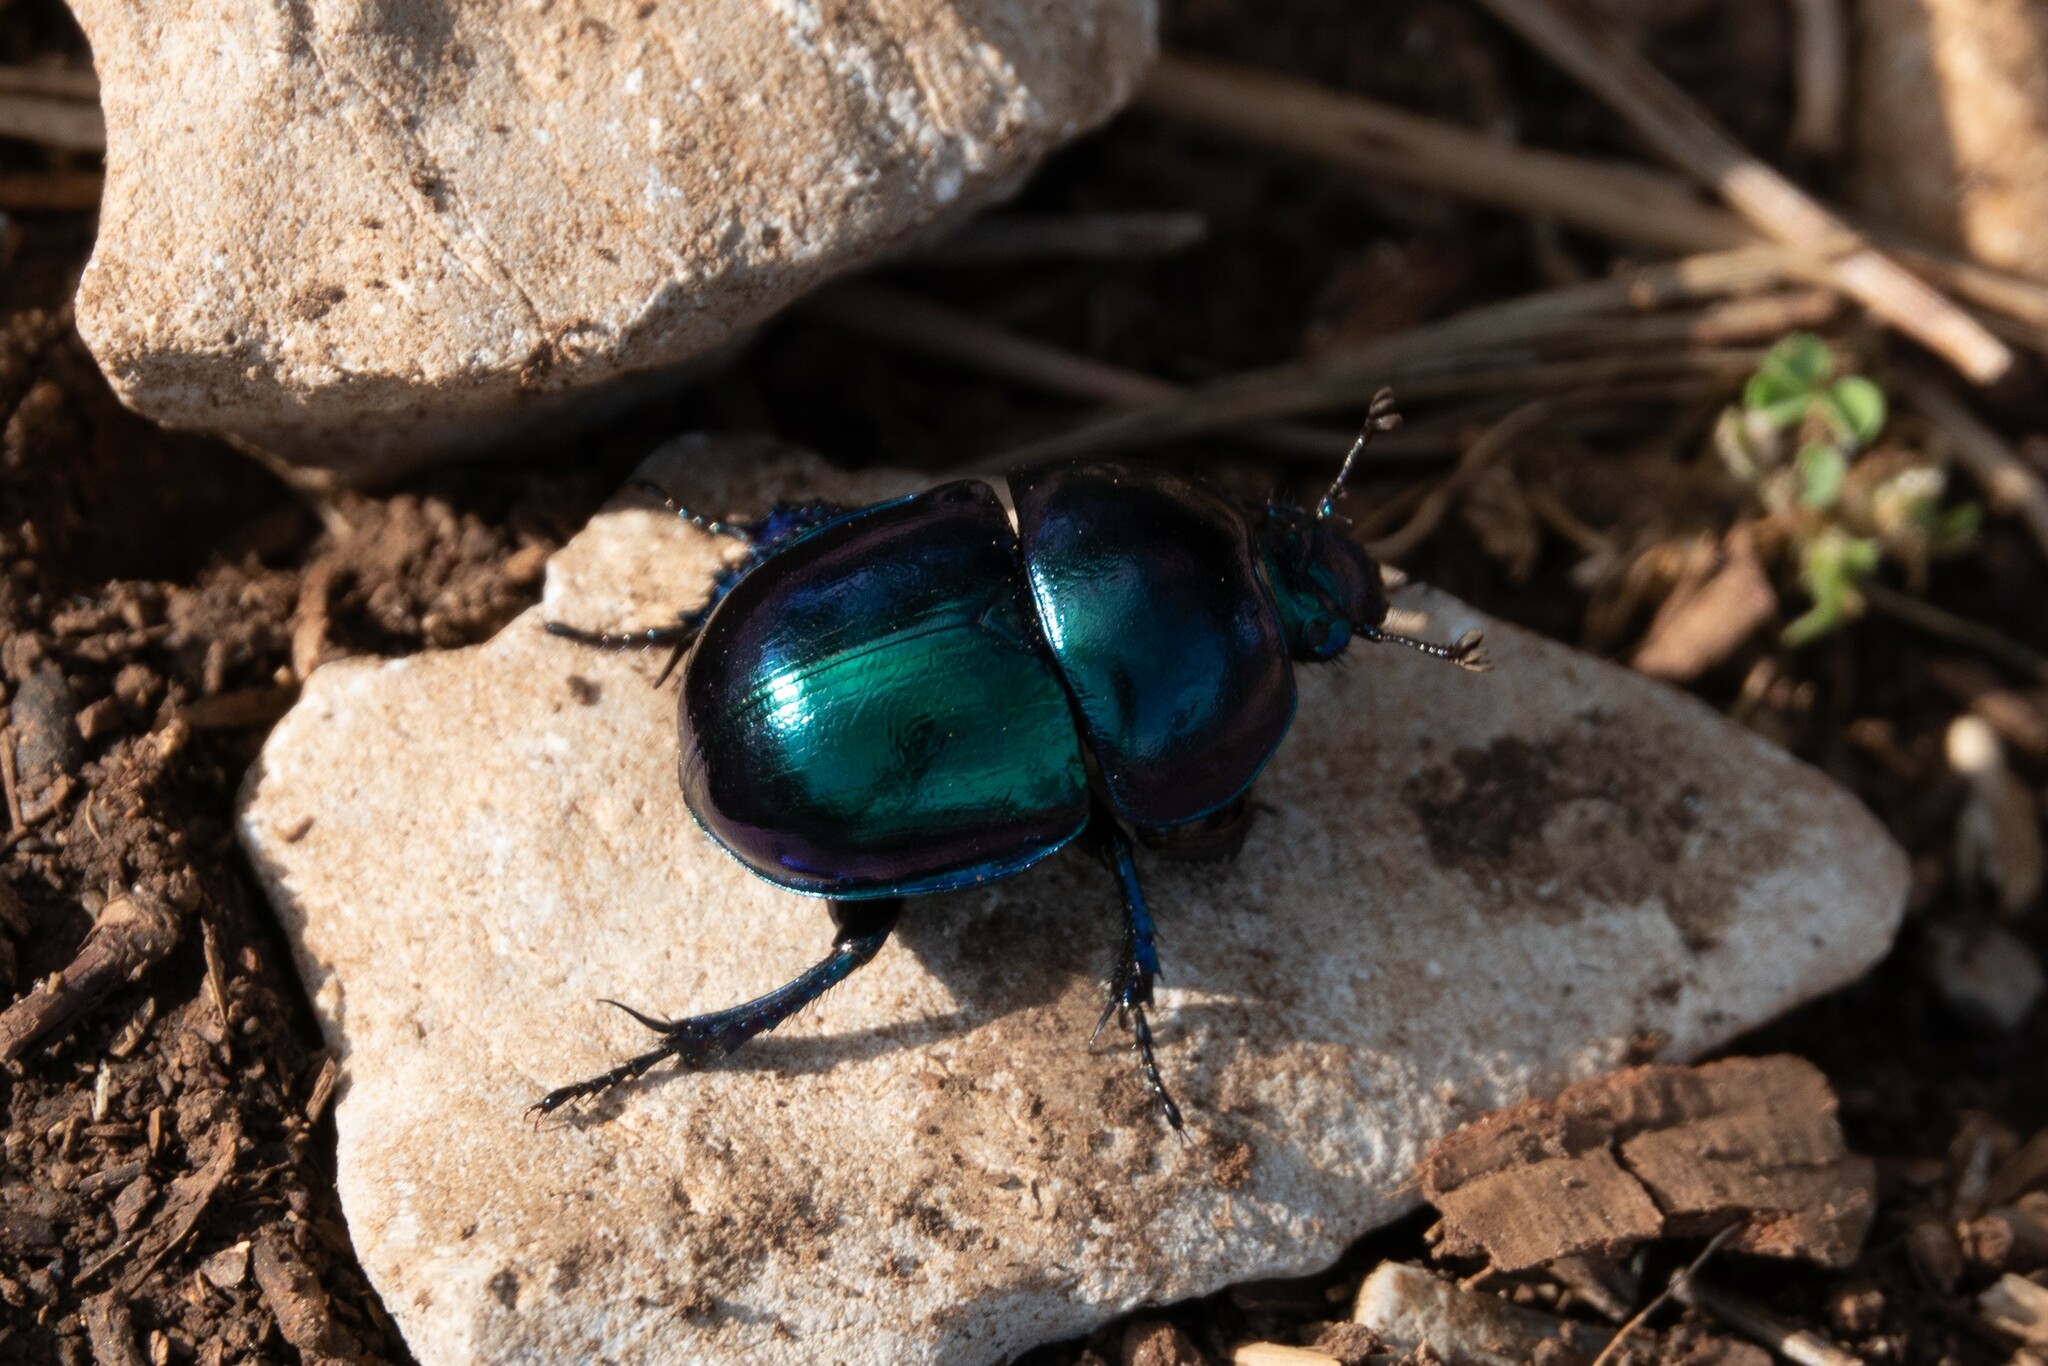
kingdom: Animalia
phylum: Arthropoda
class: Insecta
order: Coleoptera
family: Geotrupidae
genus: Trypocopris
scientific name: Trypocopris vernalis
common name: Spring dumbledor
